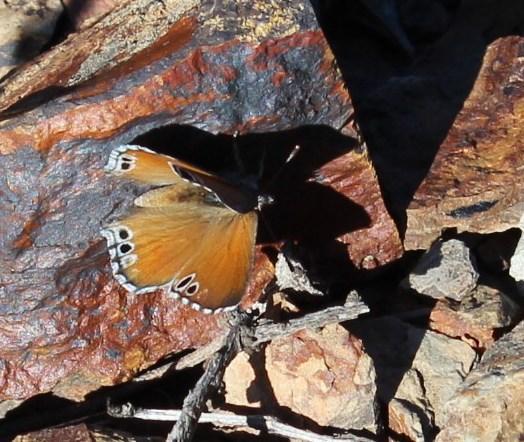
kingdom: Animalia
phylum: Arthropoda
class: Insecta
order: Lepidoptera
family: Lycaenidae
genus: Leptomyrina
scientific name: Leptomyrina lara
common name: Cape black-eye
